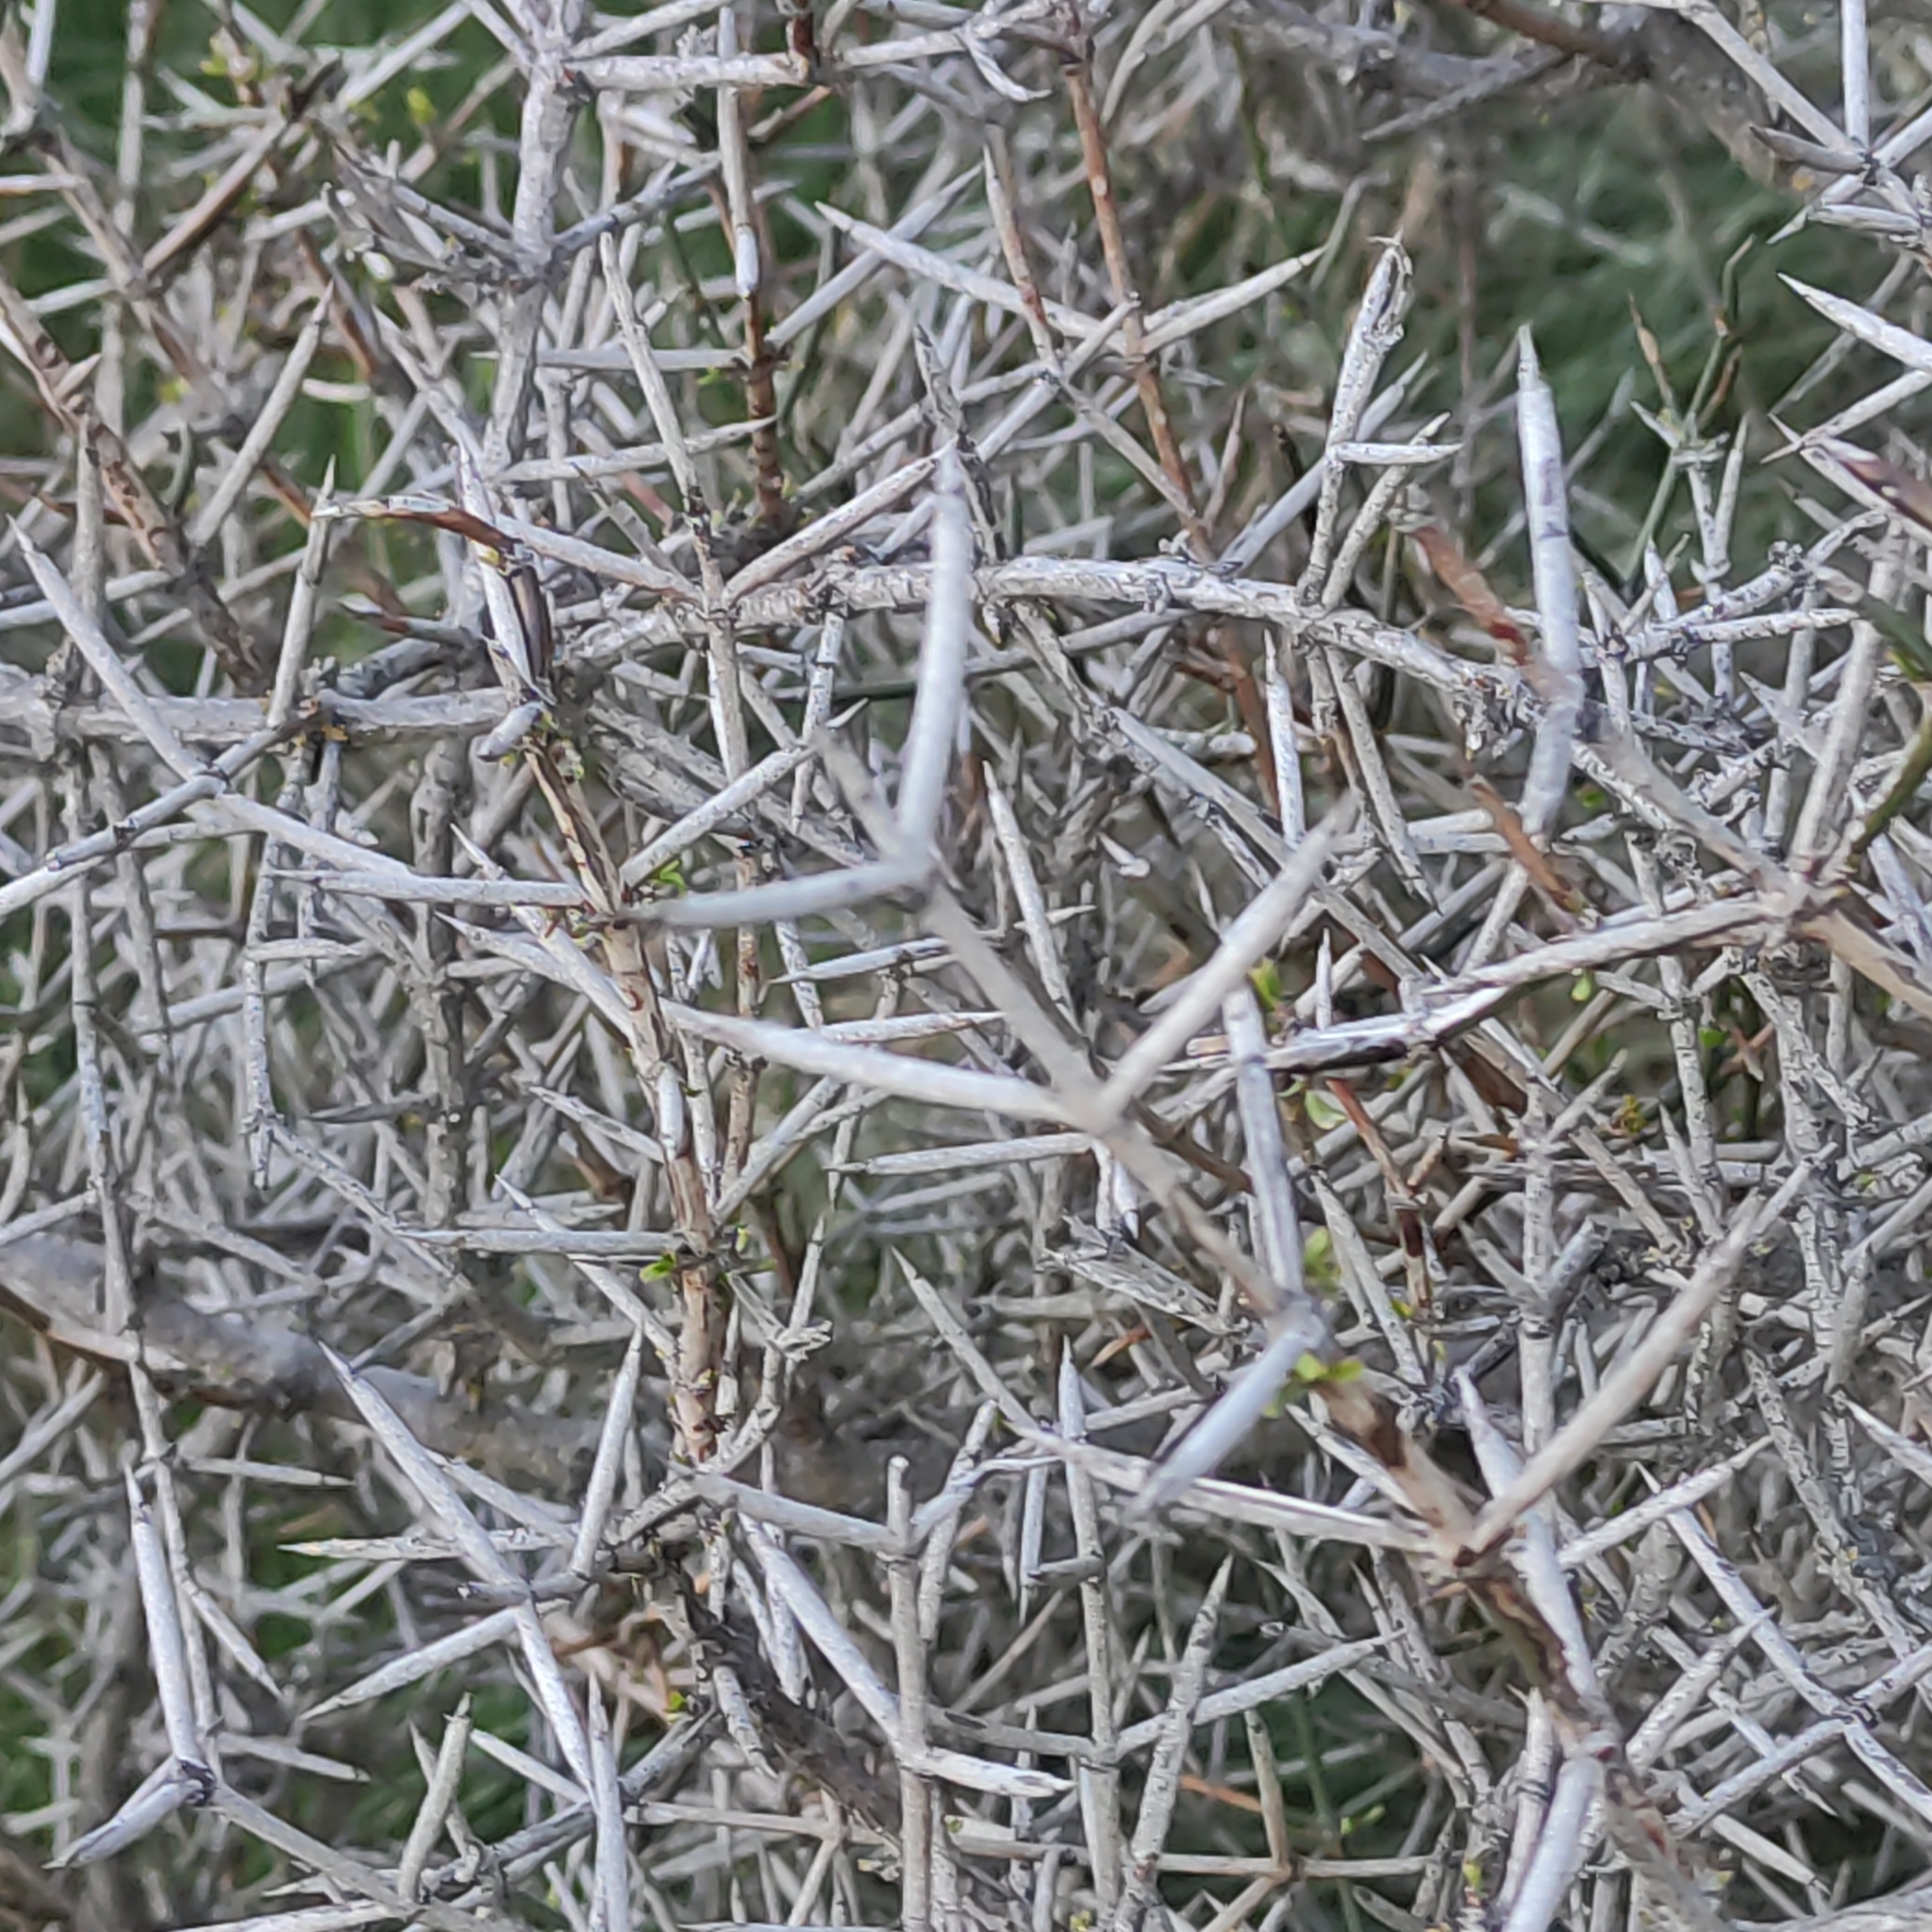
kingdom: Plantae
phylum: Tracheophyta
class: Magnoliopsida
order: Rosales
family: Rhamnaceae
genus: Discaria
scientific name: Discaria toumatou
